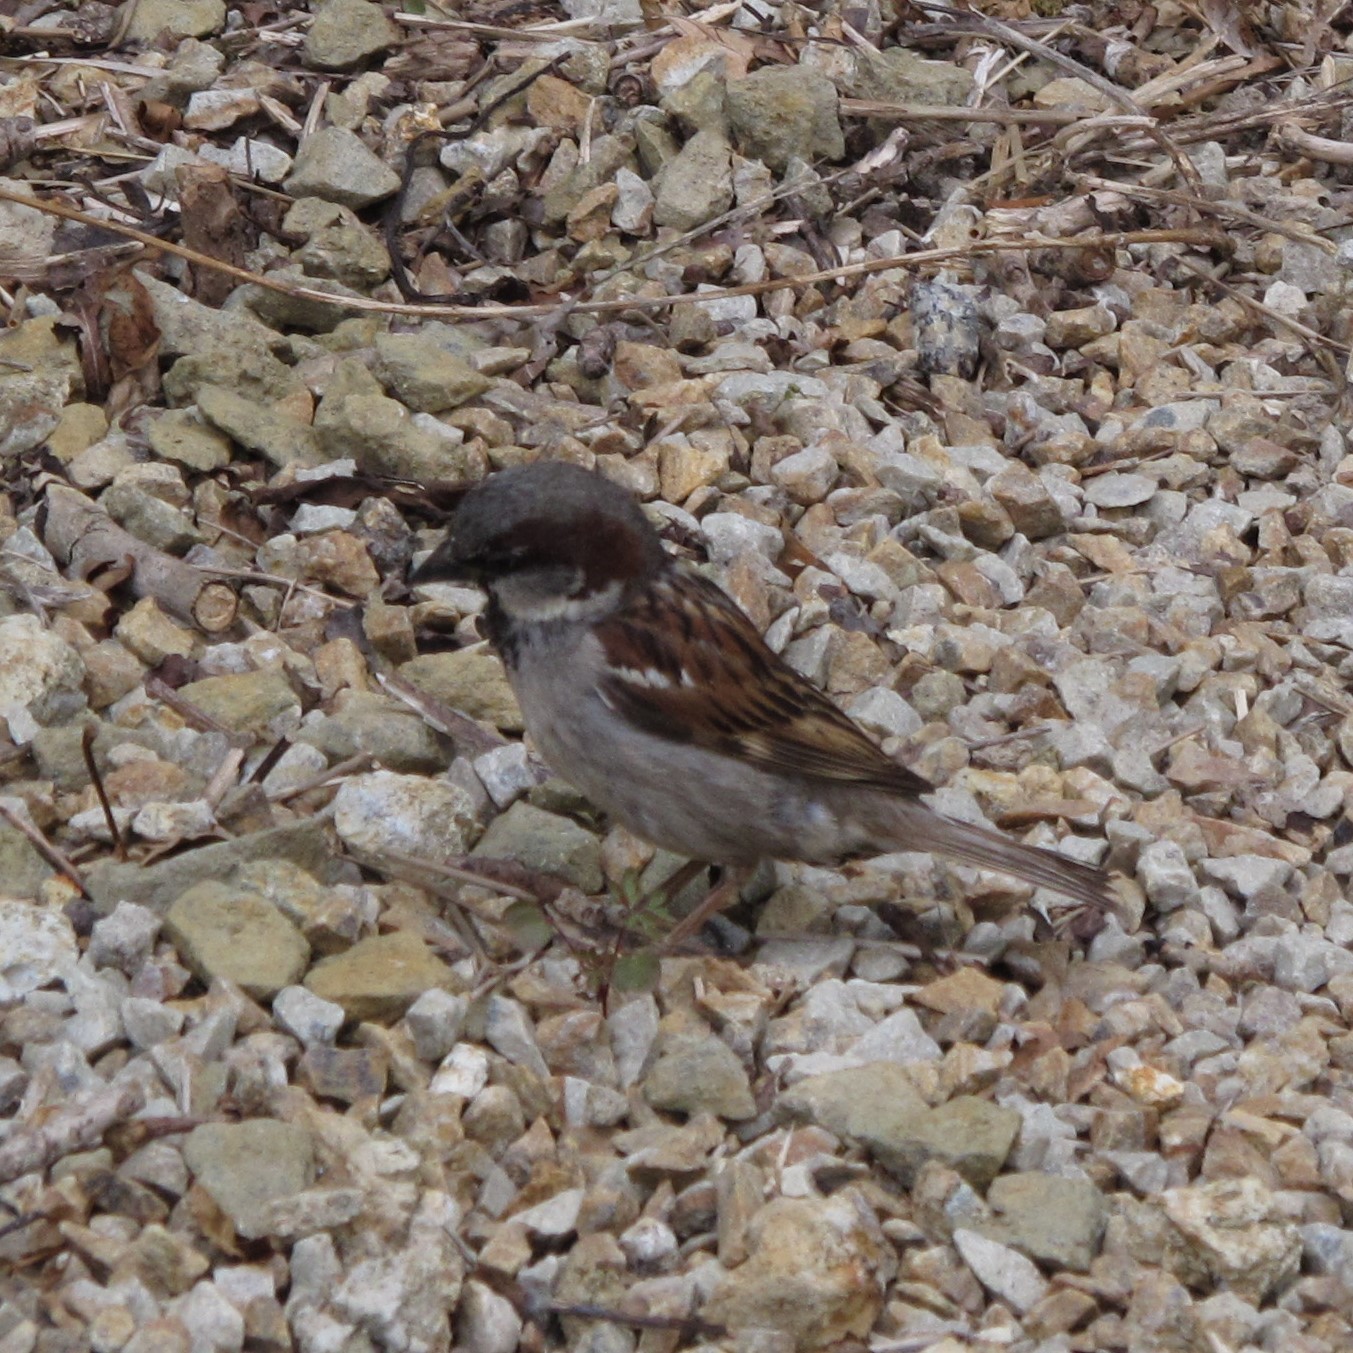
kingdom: Animalia
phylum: Chordata
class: Aves
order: Passeriformes
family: Passeridae
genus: Passer
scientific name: Passer domesticus
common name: House sparrow
